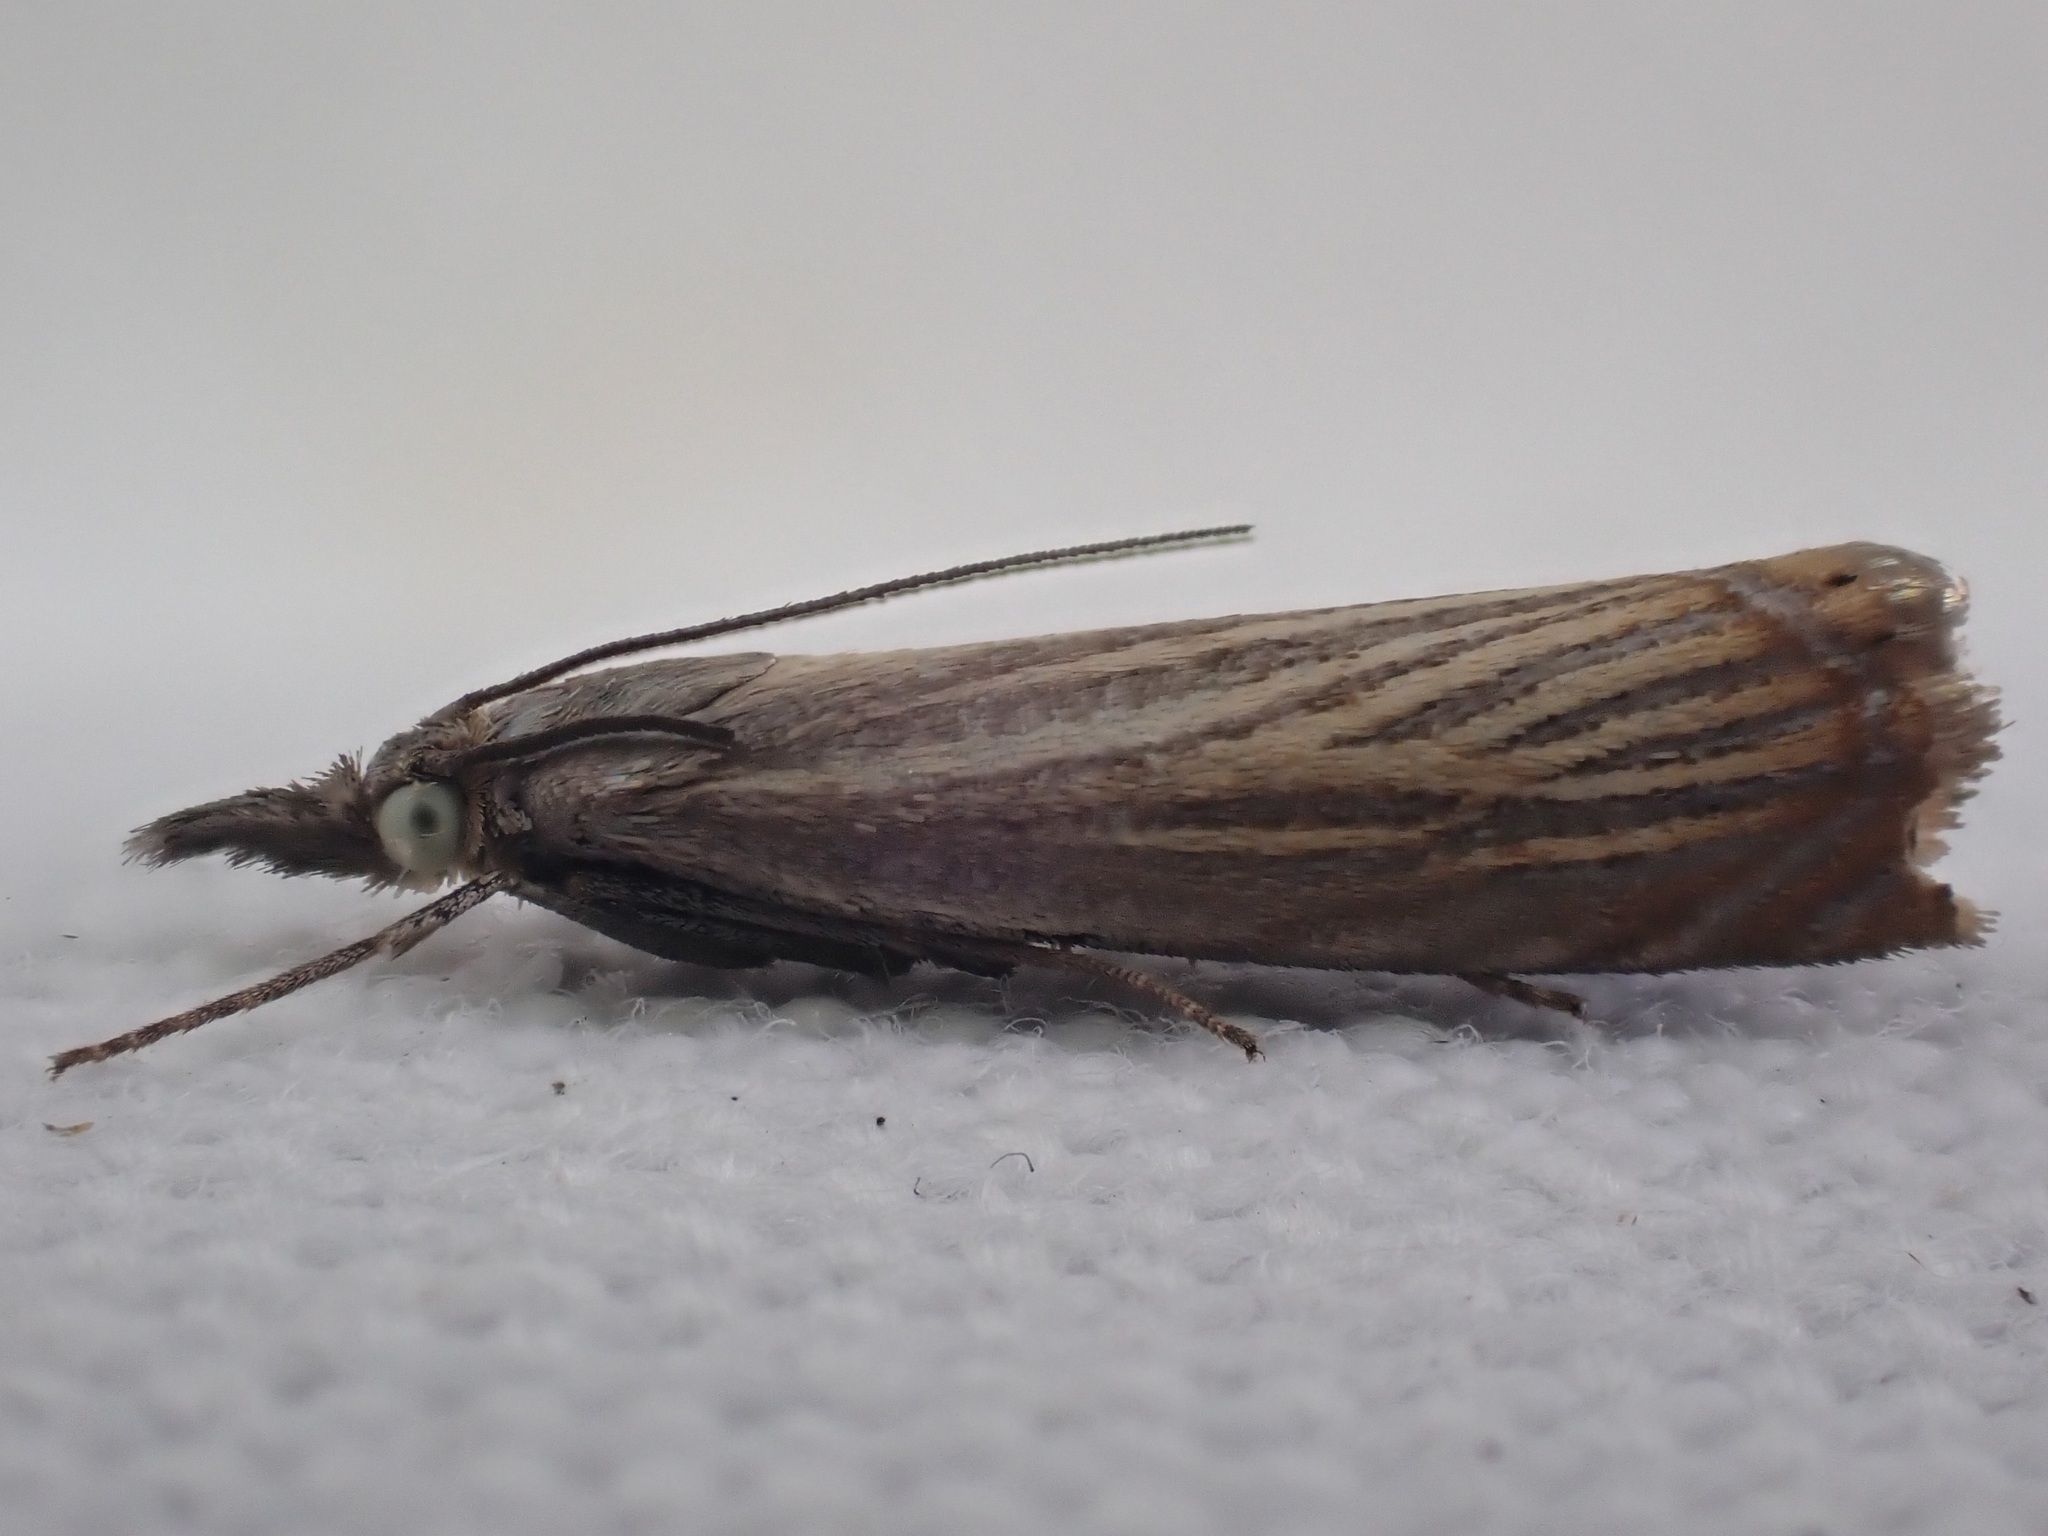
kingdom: Animalia
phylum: Arthropoda
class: Insecta
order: Lepidoptera
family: Crambidae
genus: Chrysoteuchia
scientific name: Chrysoteuchia culmella
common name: Garden grass-veneer
